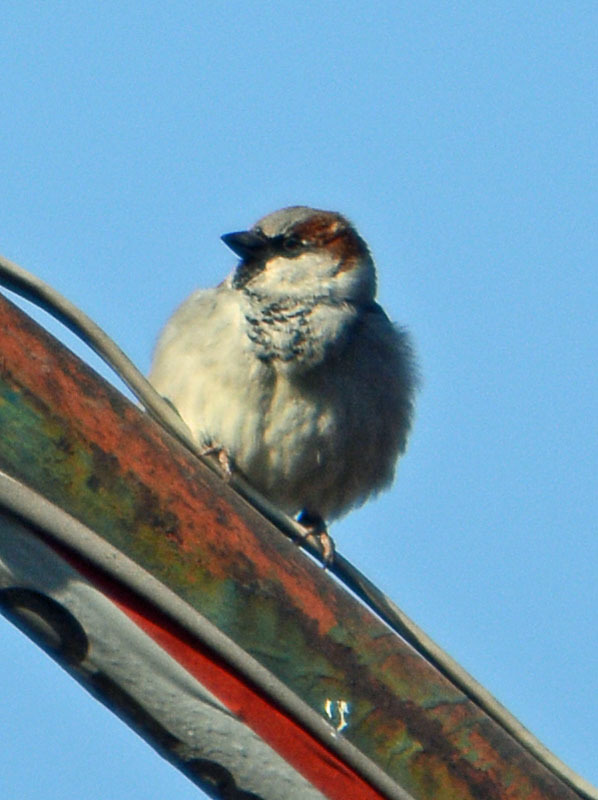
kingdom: Animalia
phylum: Chordata
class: Aves
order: Passeriformes
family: Passeridae
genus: Passer
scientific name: Passer domesticus
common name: House sparrow
